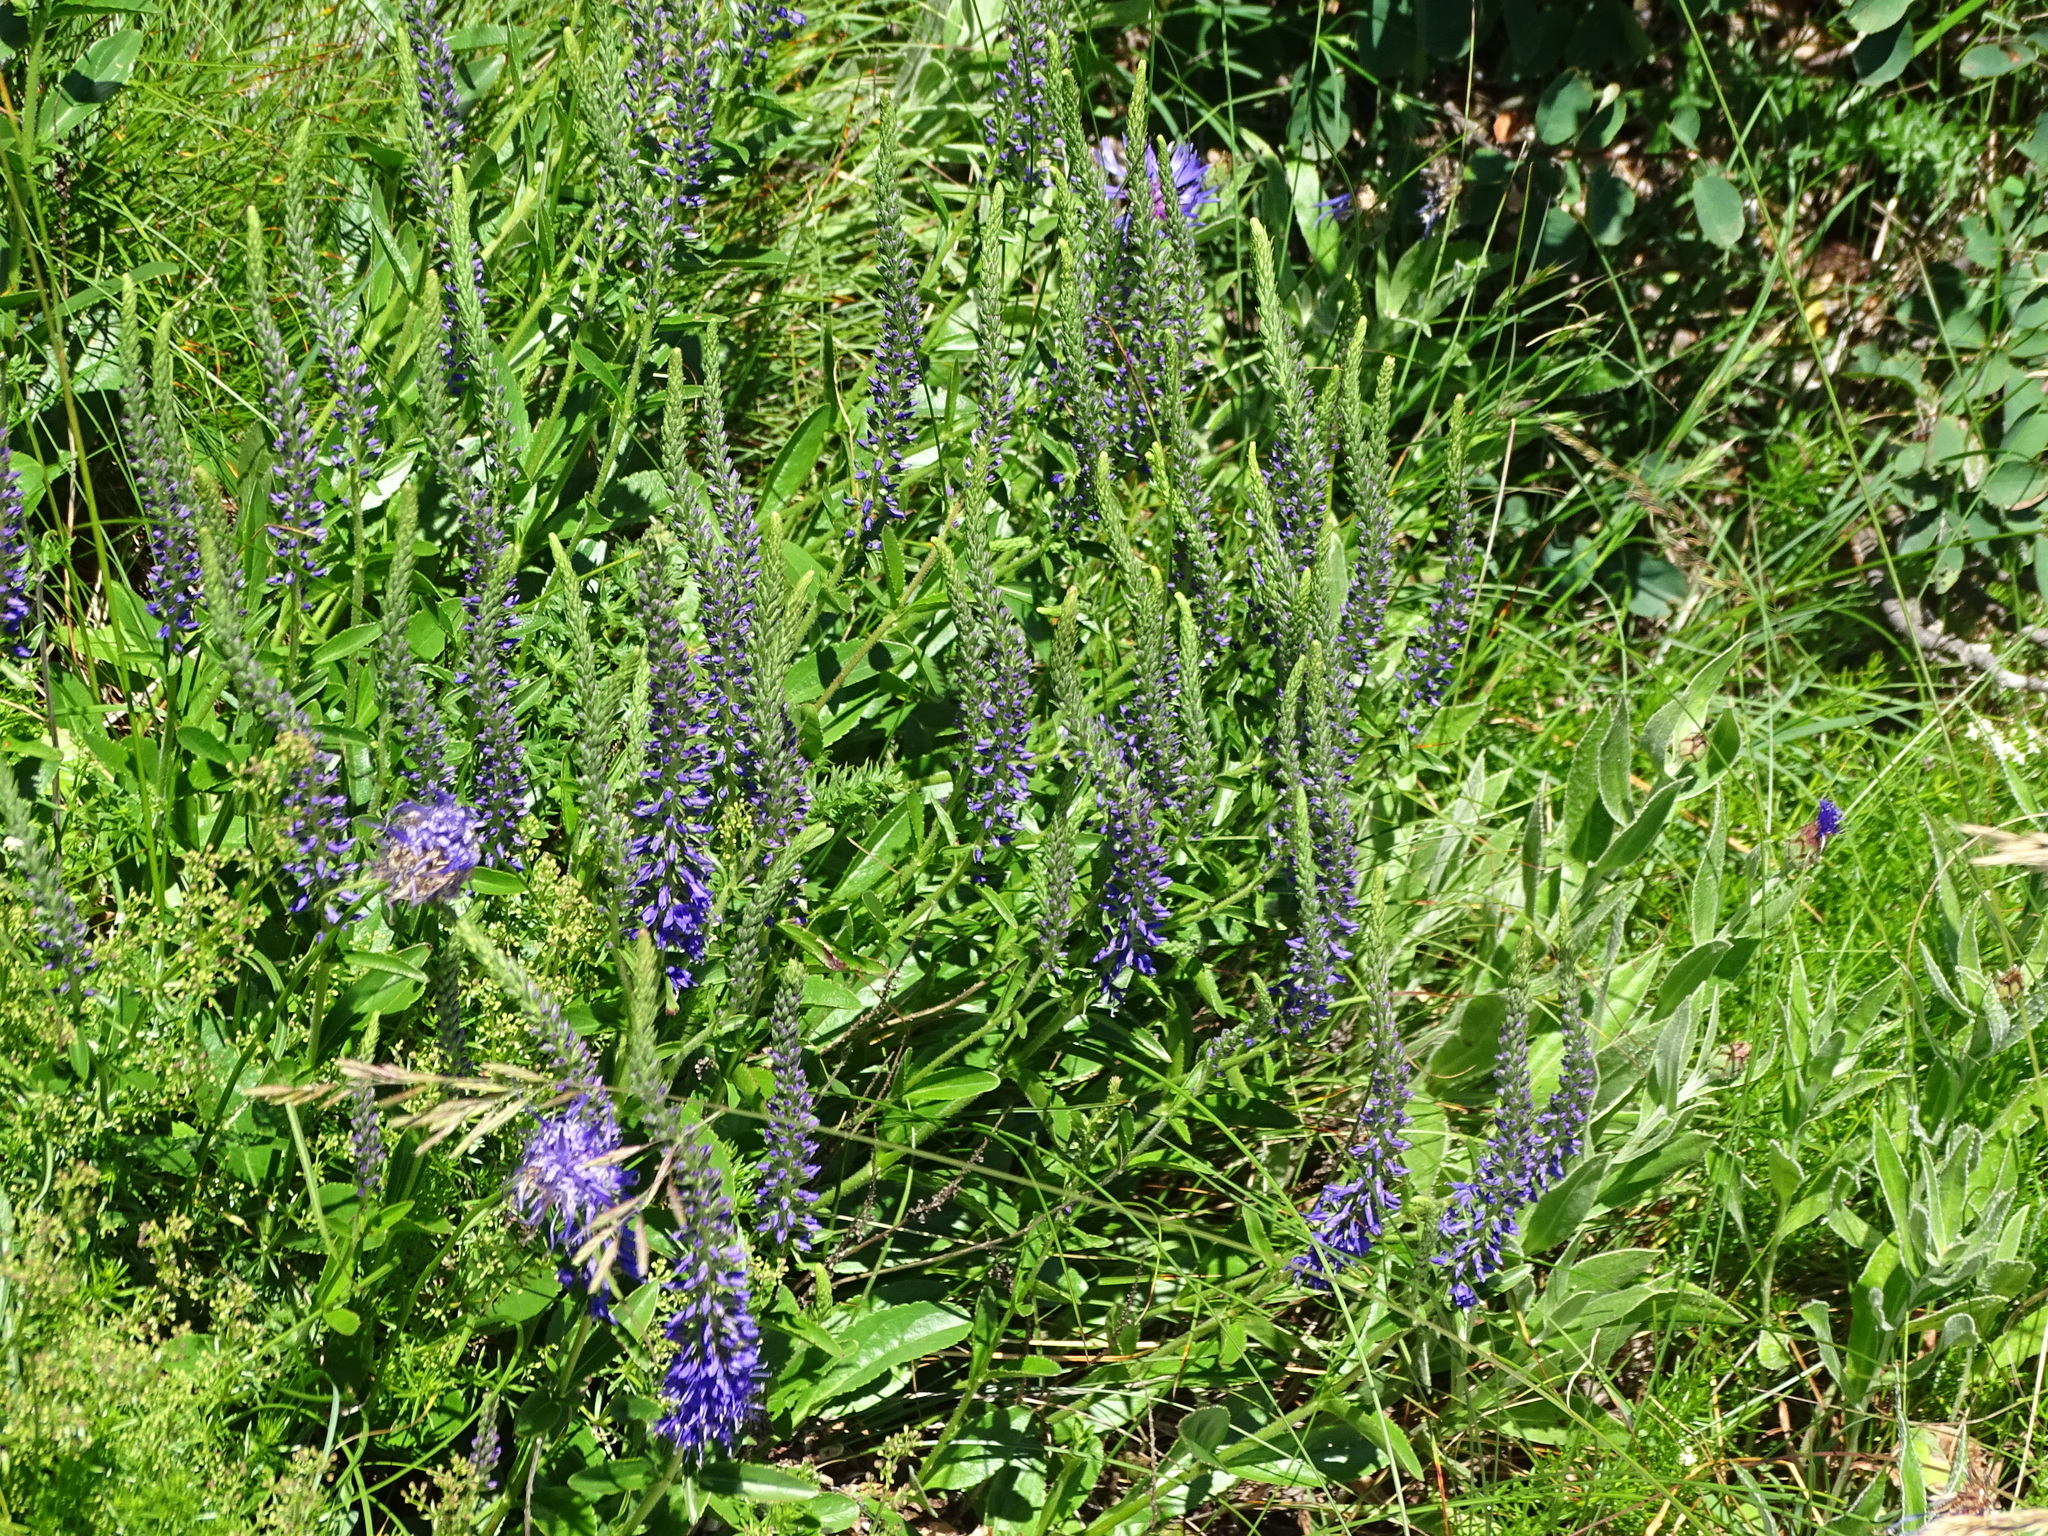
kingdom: Plantae
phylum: Tracheophyta
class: Magnoliopsida
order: Lamiales
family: Plantaginaceae
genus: Veronica
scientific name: Veronica barrelieri
